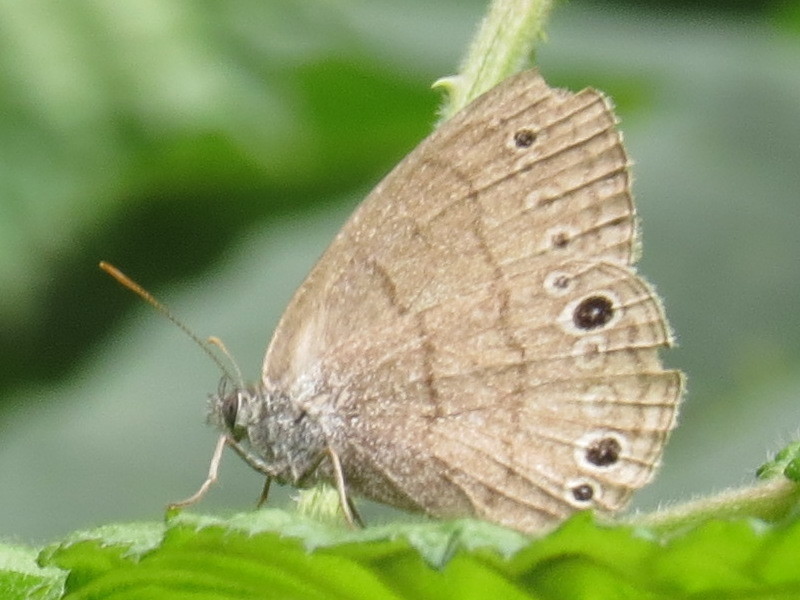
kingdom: Animalia
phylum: Arthropoda
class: Insecta
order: Lepidoptera
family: Nymphalidae
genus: Hermeuptychia
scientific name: Hermeuptychia hermes
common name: Hermes satyr
